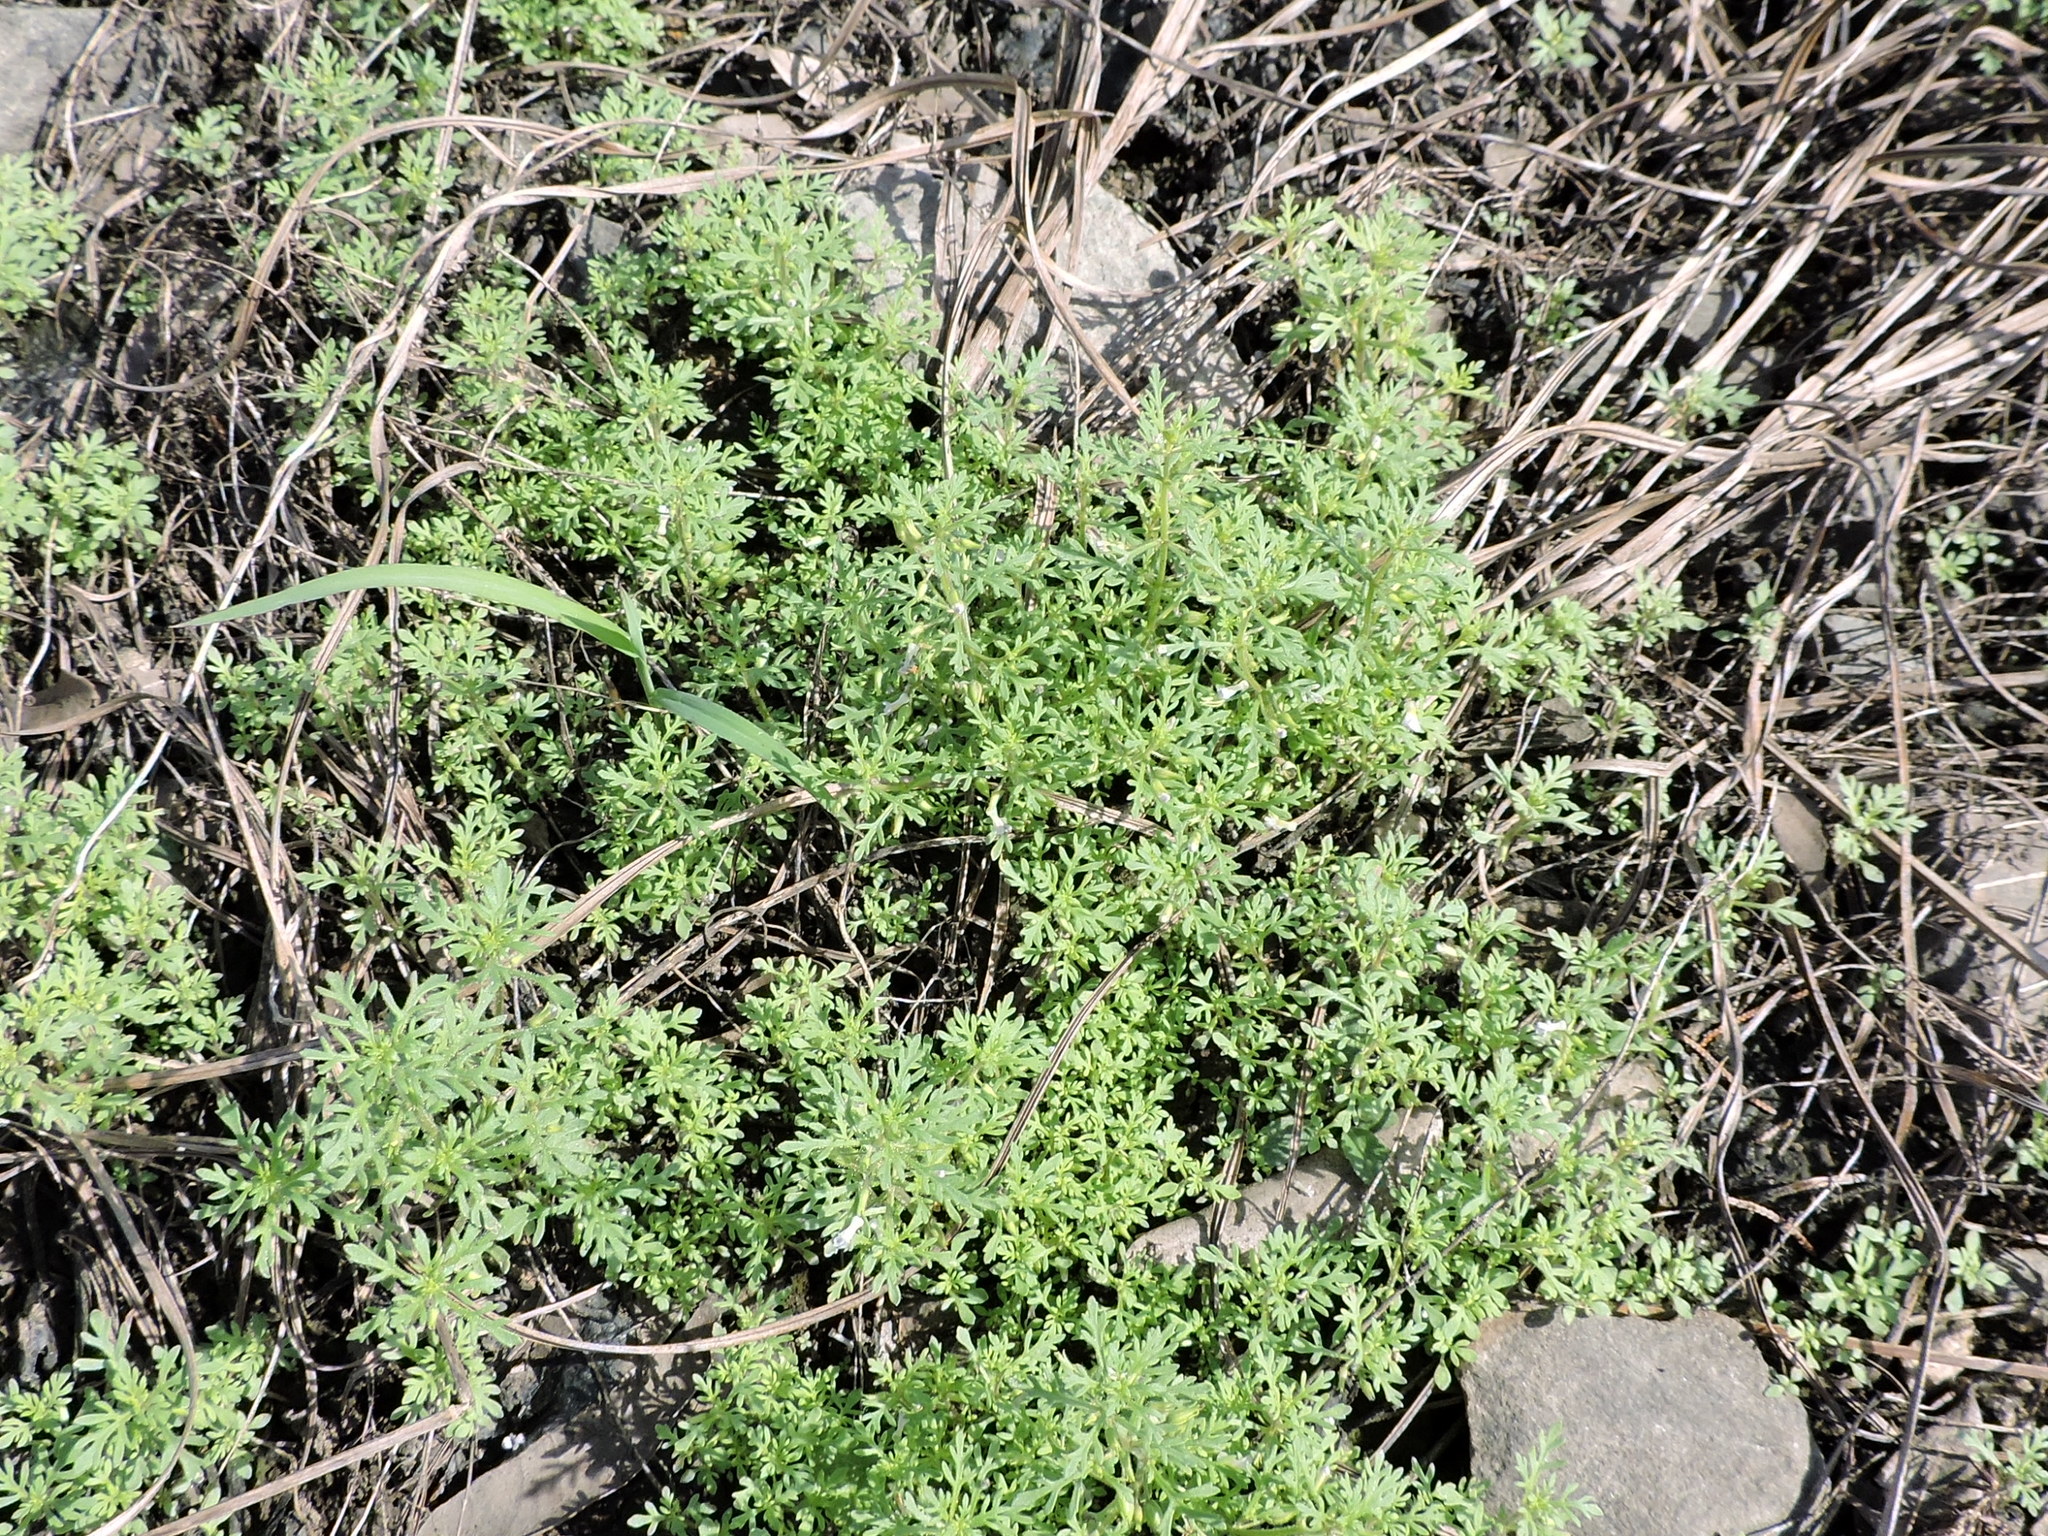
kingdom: Plantae
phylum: Tracheophyta
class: Magnoliopsida
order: Lamiales
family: Plantaginaceae
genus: Leucospora
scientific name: Leucospora multifida
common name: Narrow-leaf paleseed
